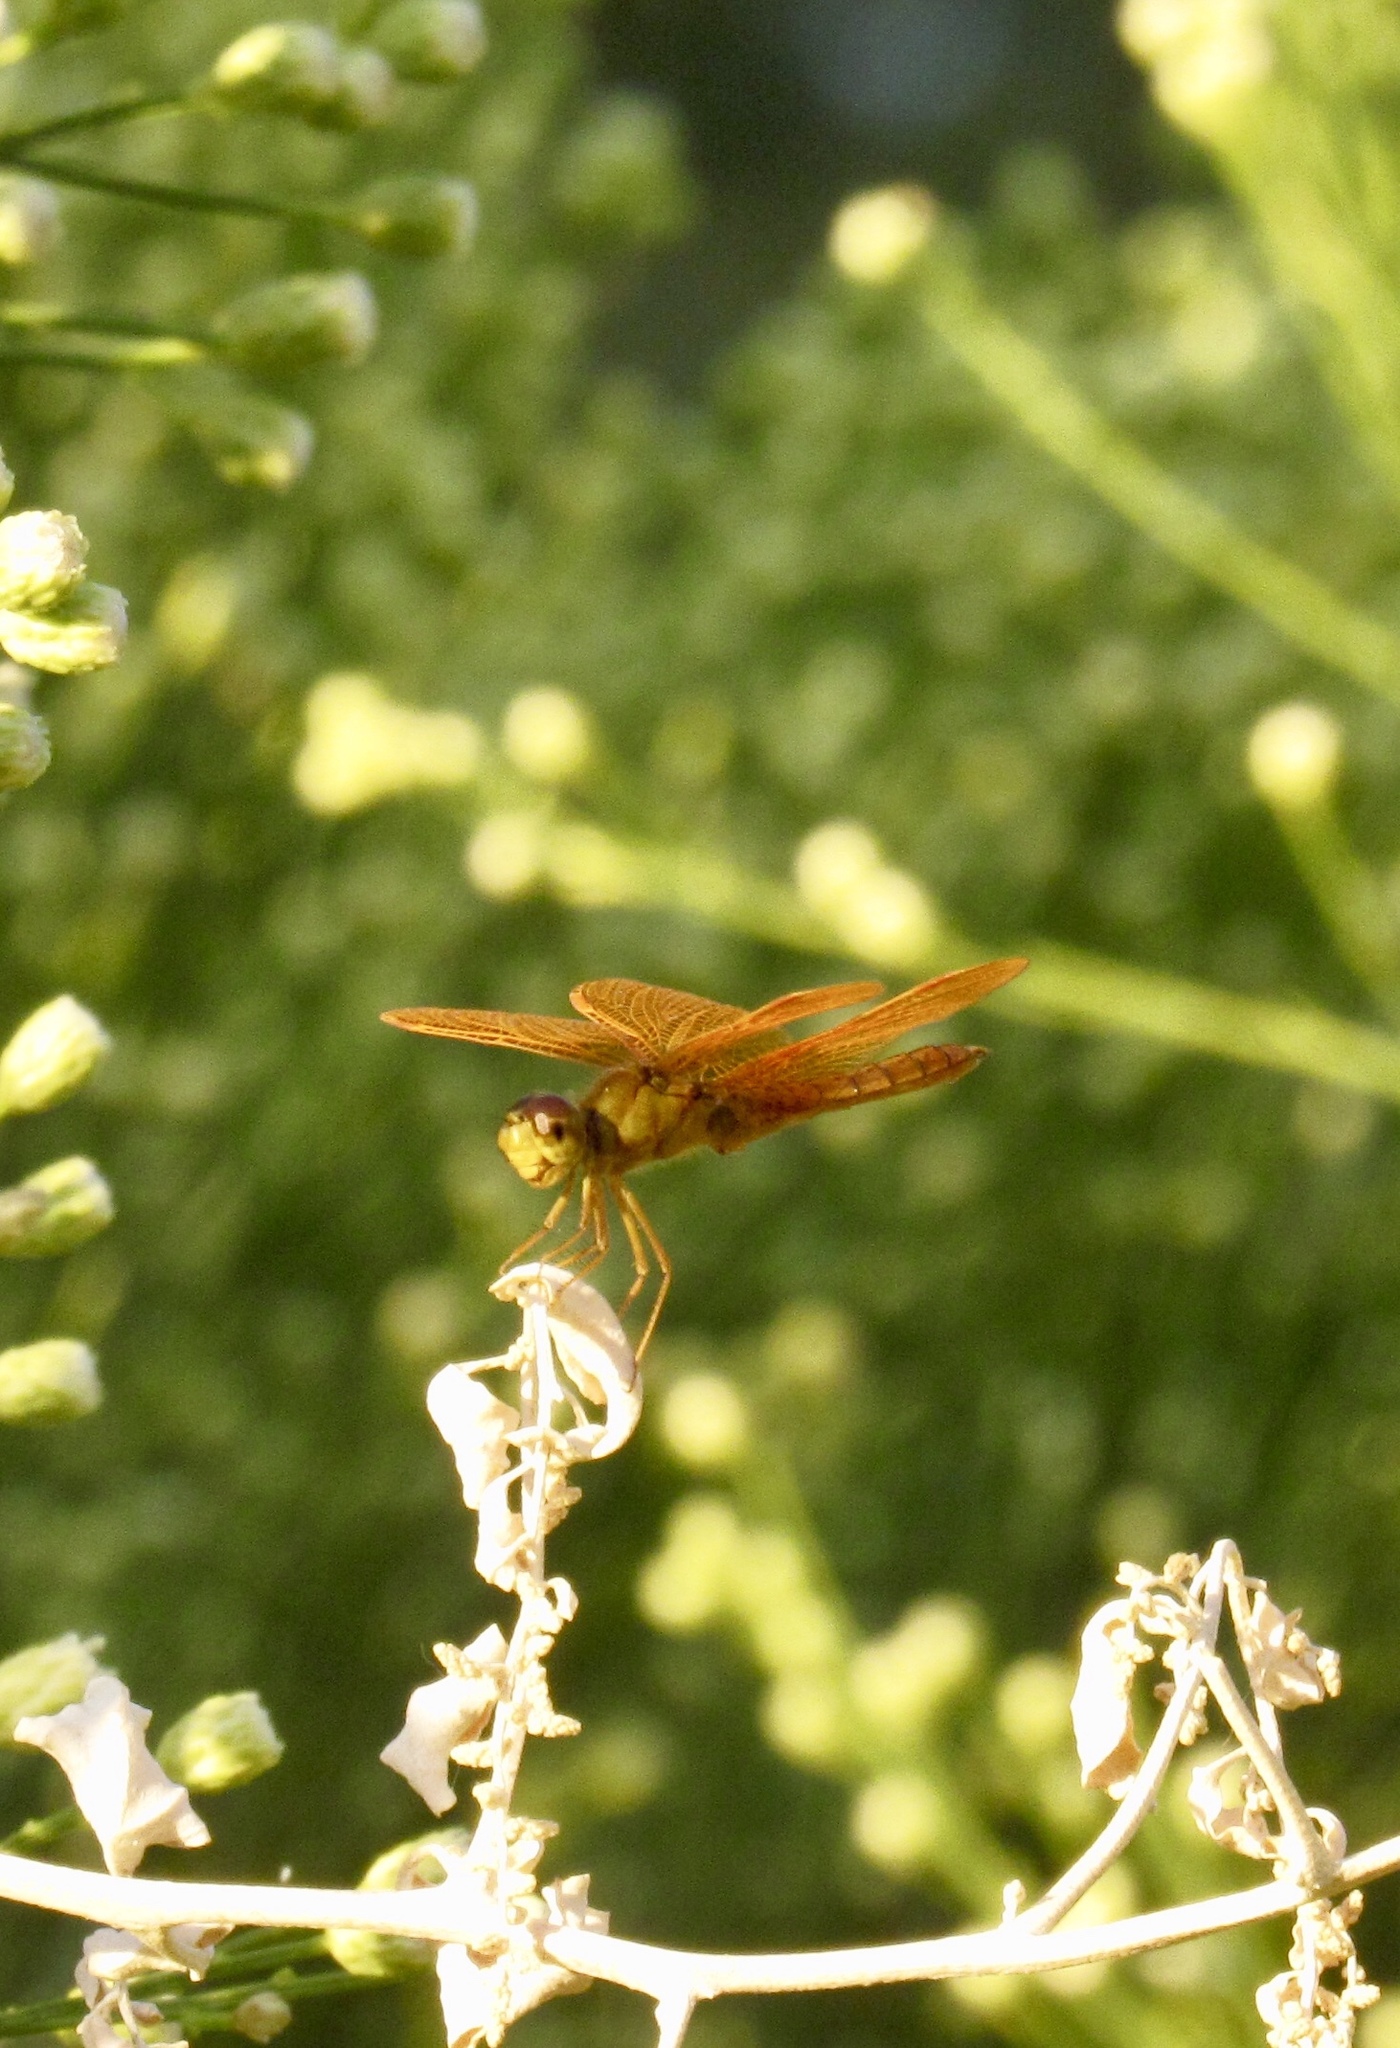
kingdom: Animalia
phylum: Arthropoda
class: Insecta
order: Odonata
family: Libellulidae
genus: Perithemis
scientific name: Perithemis intensa
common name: Mexican amberwing
